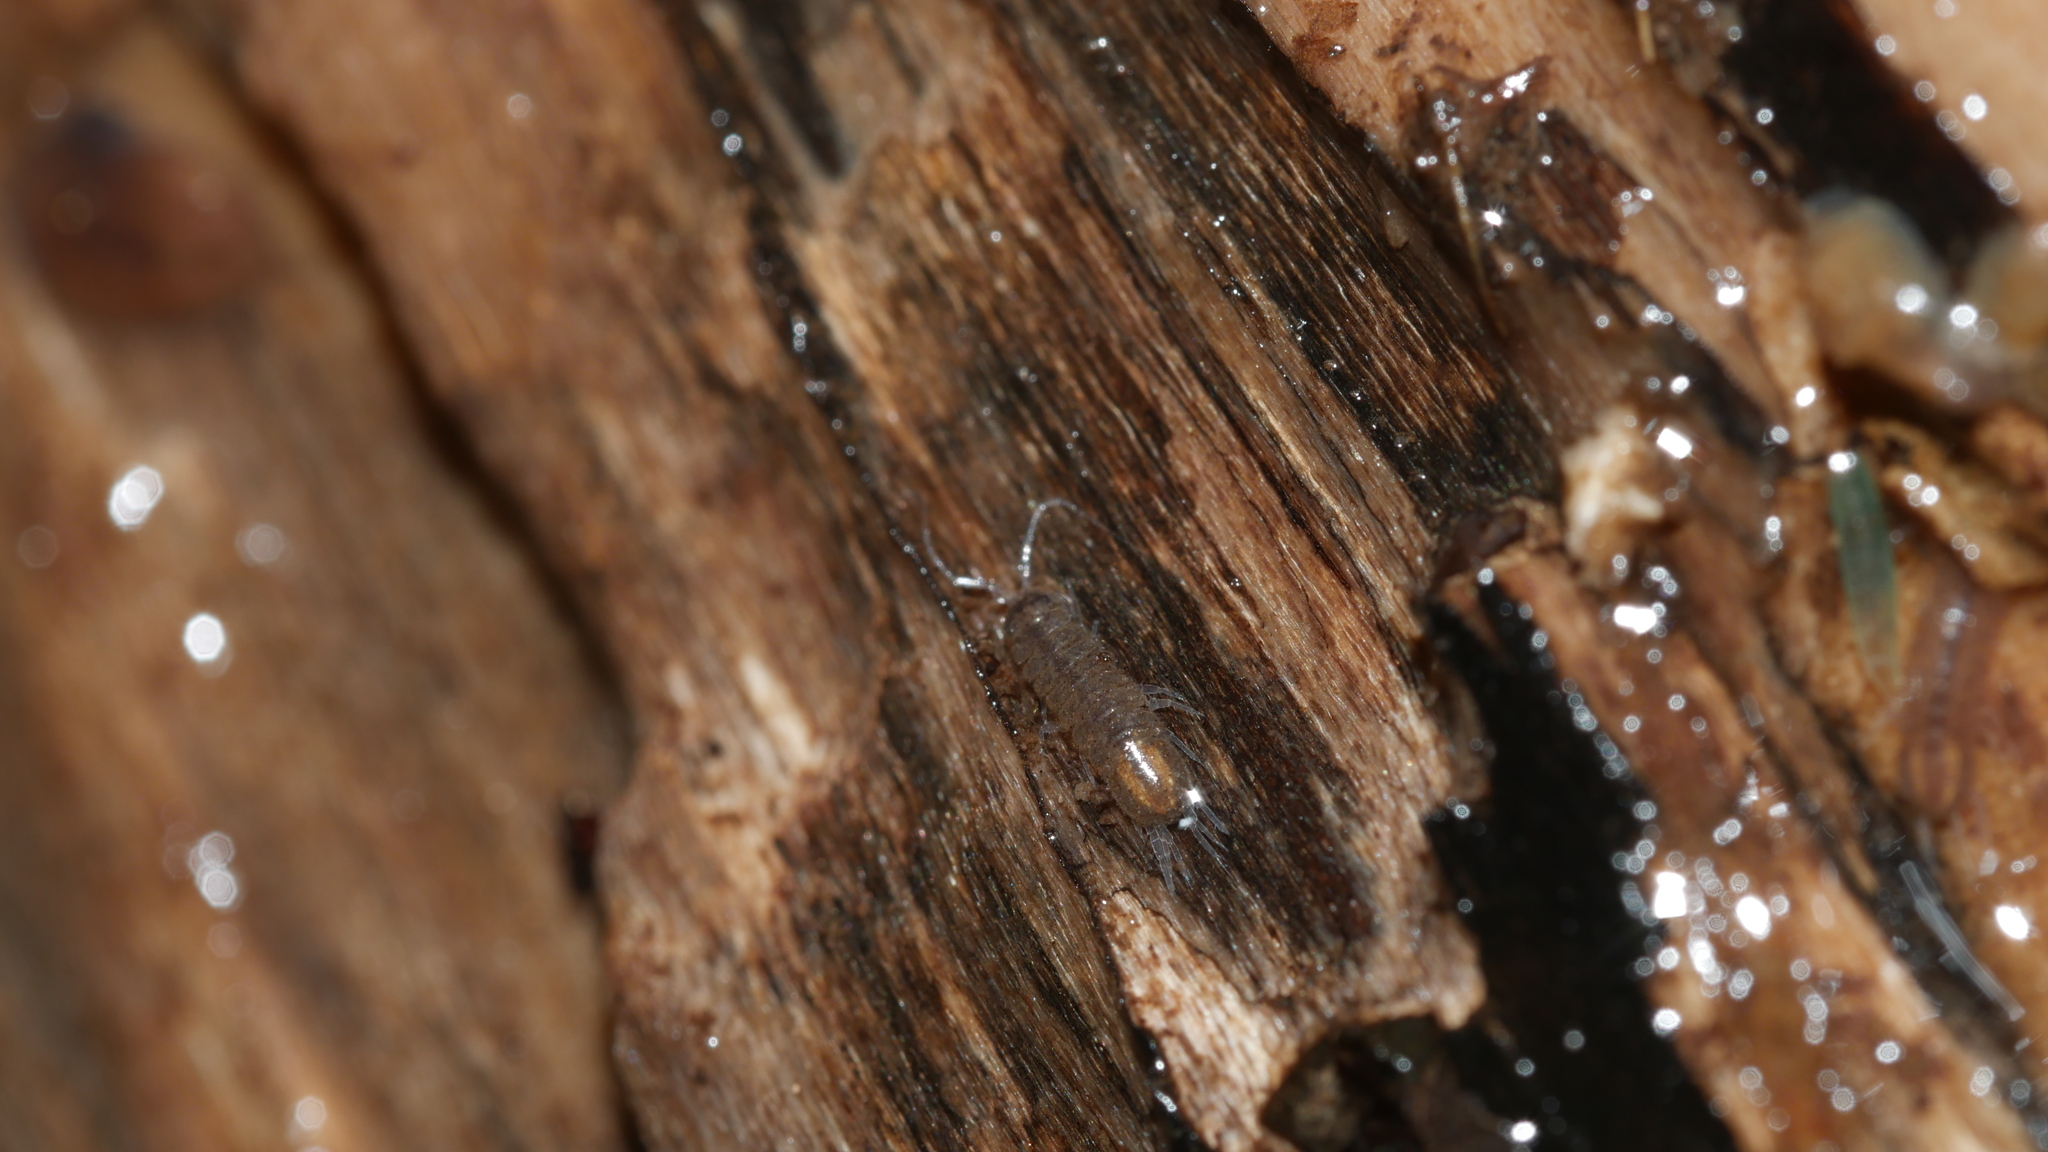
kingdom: Animalia
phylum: Arthropoda
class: Malacostraca
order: Isopoda
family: Asellidae
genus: Caecidotea
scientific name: Caecidotea nodula
